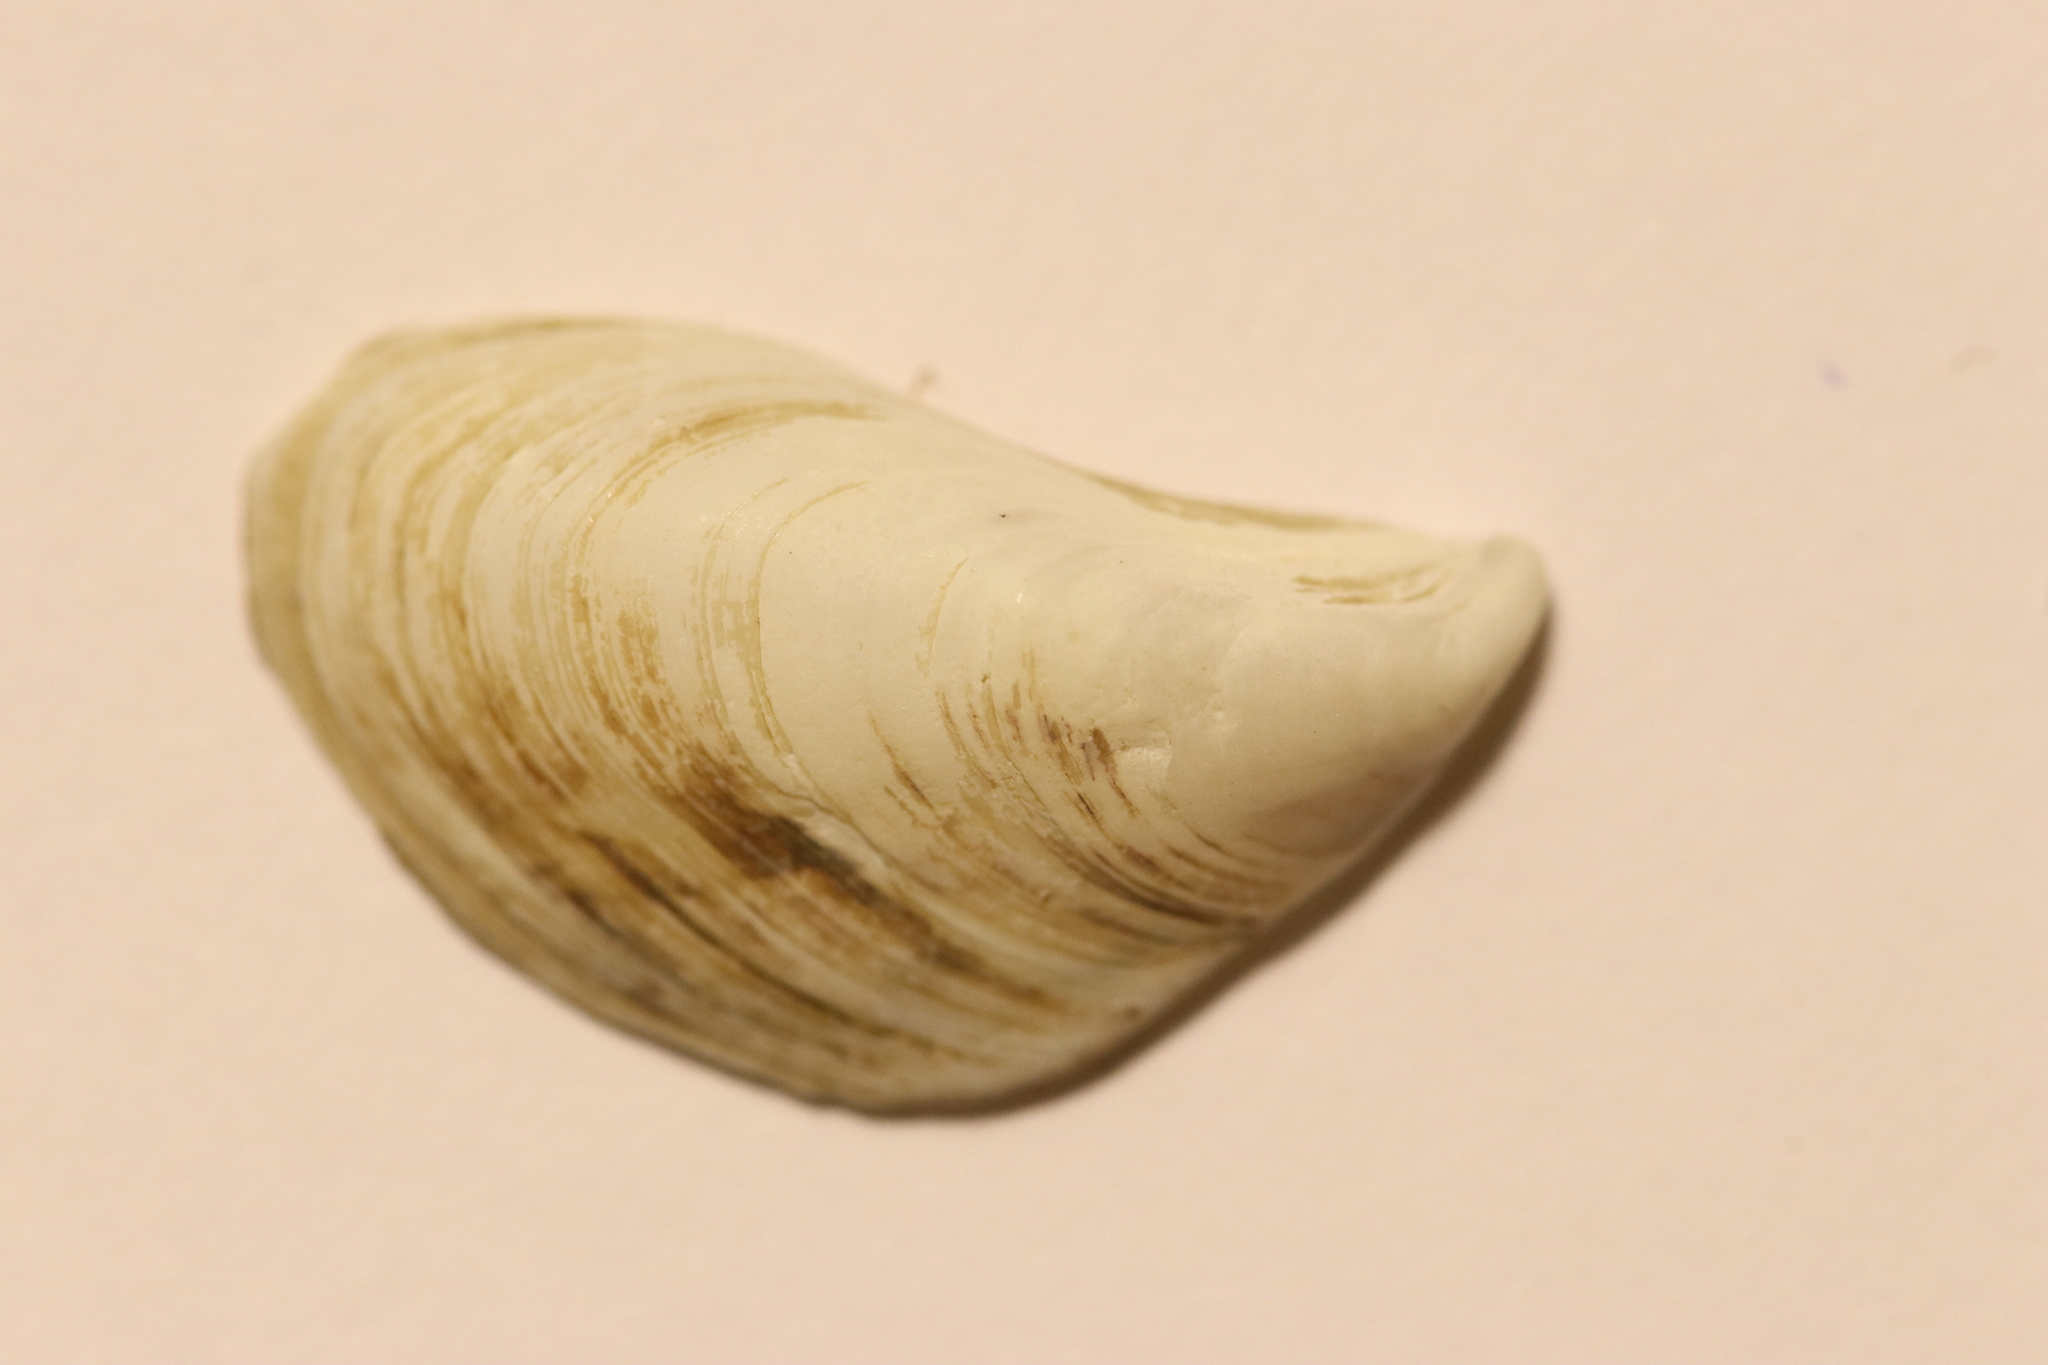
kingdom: Animalia
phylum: Mollusca
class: Bivalvia
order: Myida
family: Dreissenidae
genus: Dreissena
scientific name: Dreissena bugensis
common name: Quagga mussel
